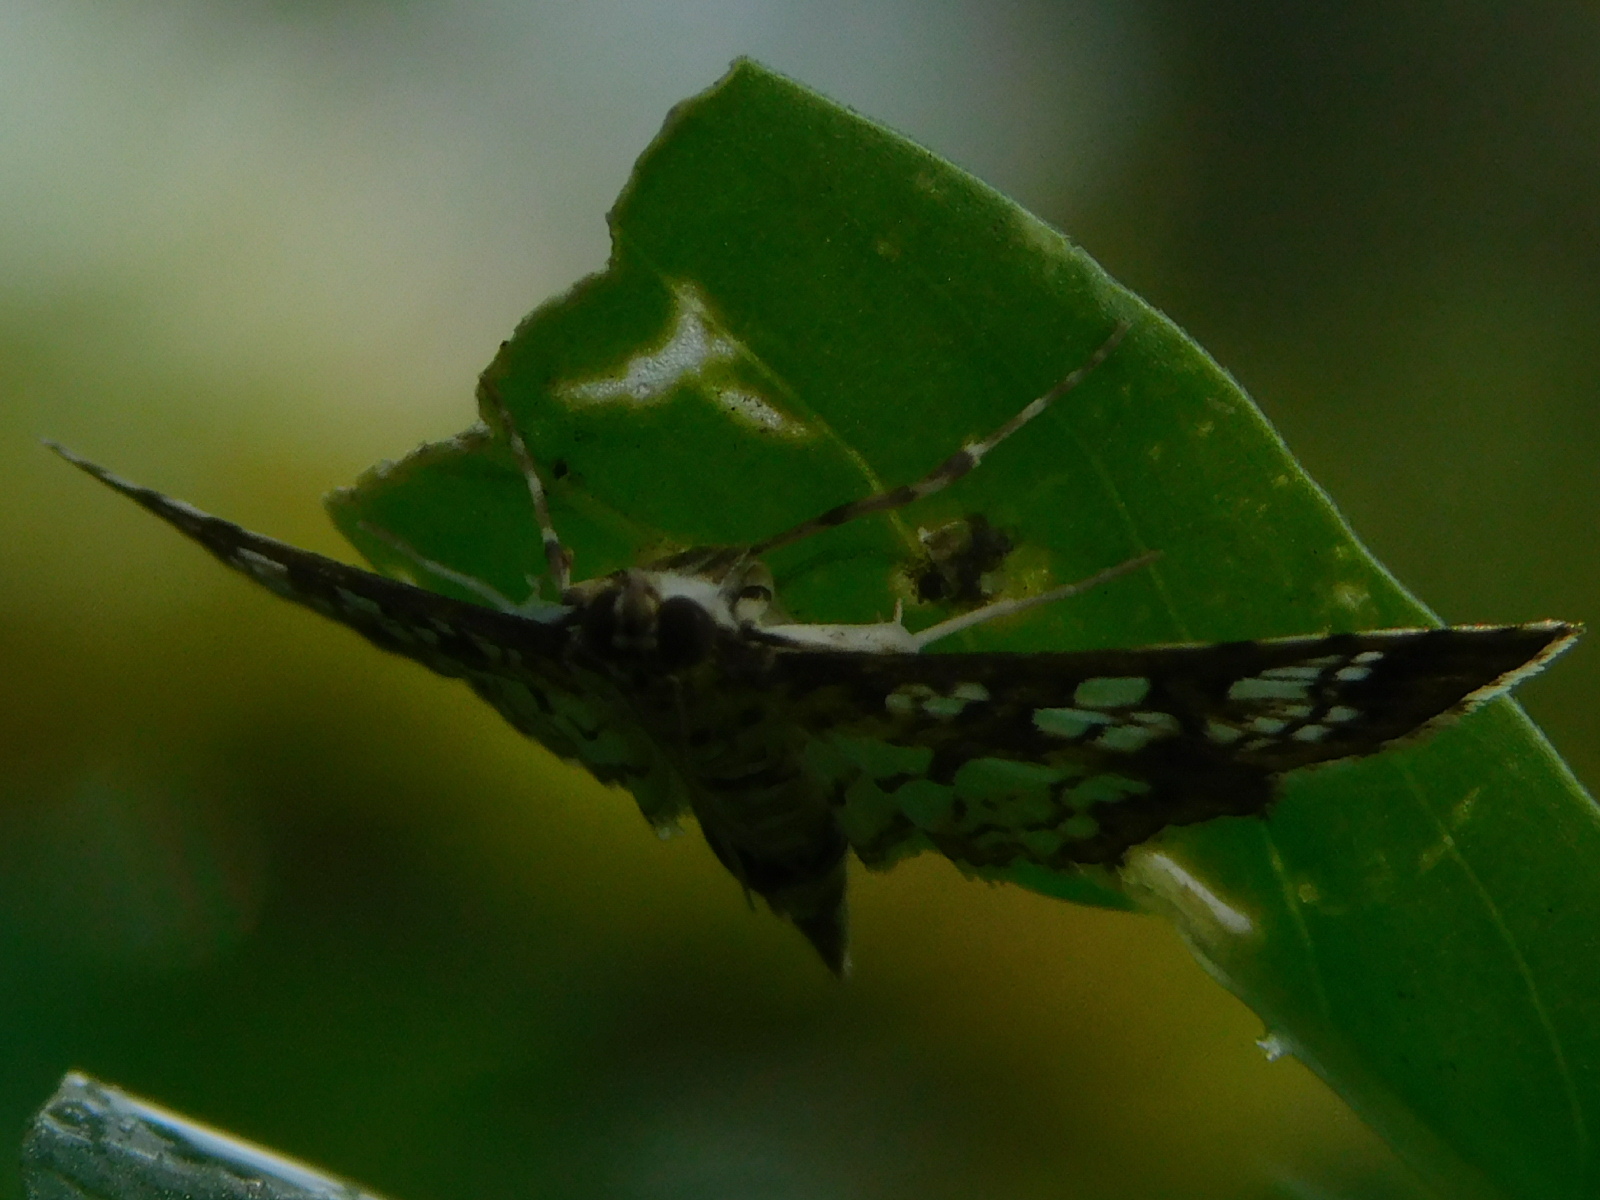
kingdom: Animalia
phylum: Arthropoda
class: Insecta
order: Lepidoptera
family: Crambidae
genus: Samea
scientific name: Samea ecclesialis
